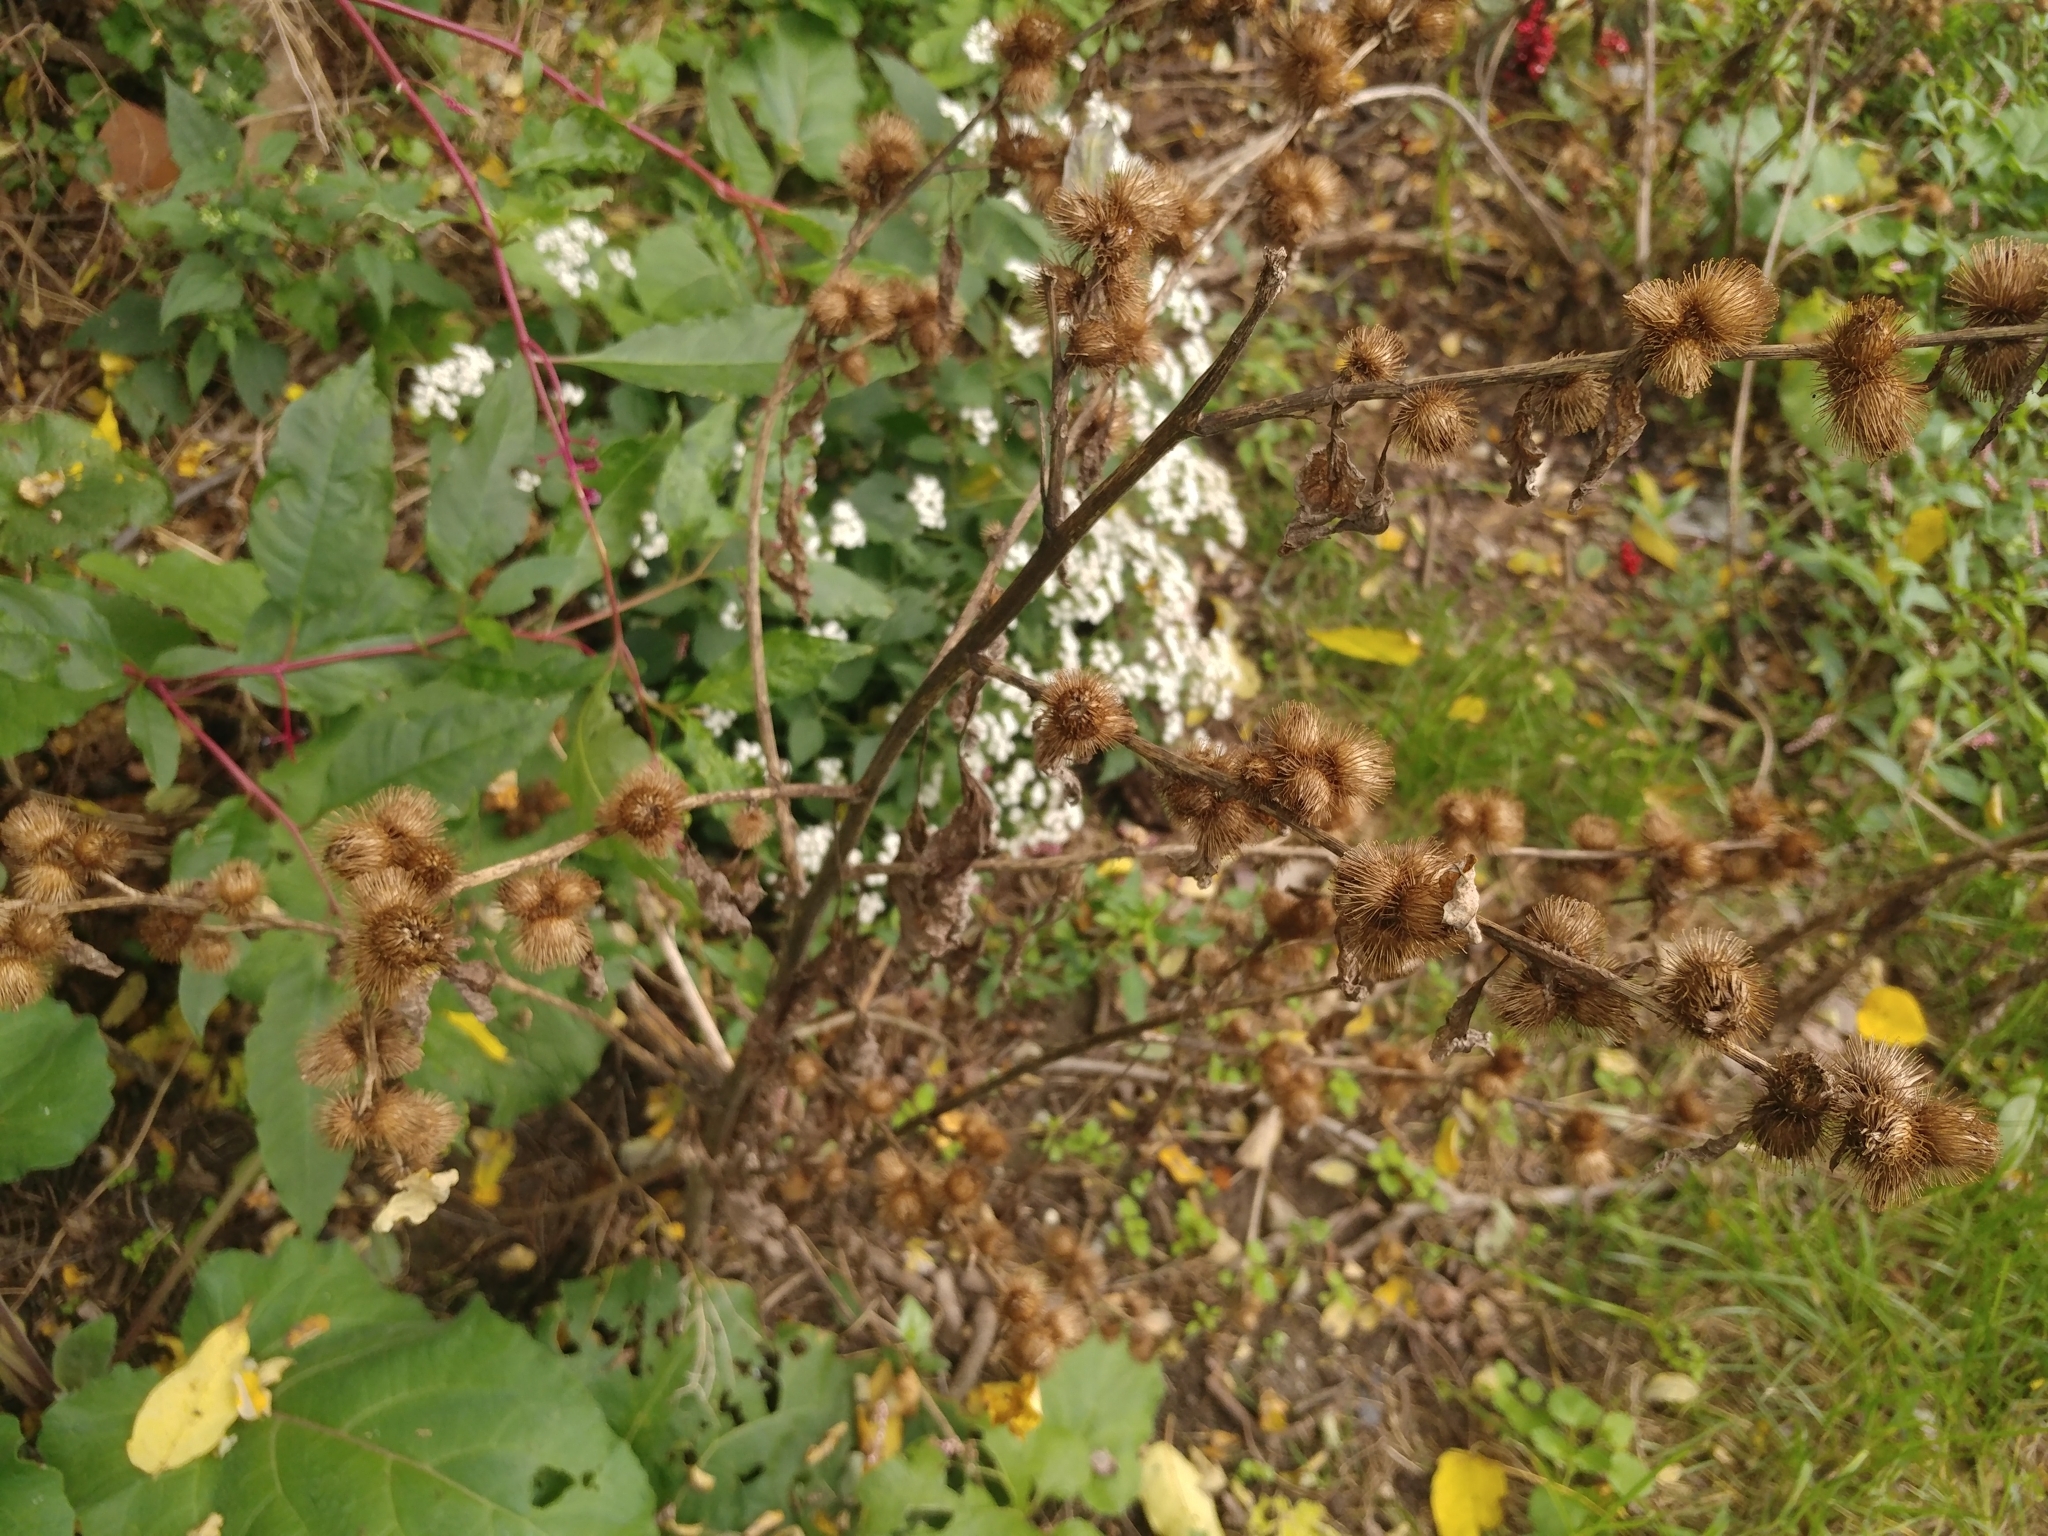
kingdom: Plantae
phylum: Tracheophyta
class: Magnoliopsida
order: Asterales
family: Asteraceae
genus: Arctium
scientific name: Arctium minus
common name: Lesser burdock
